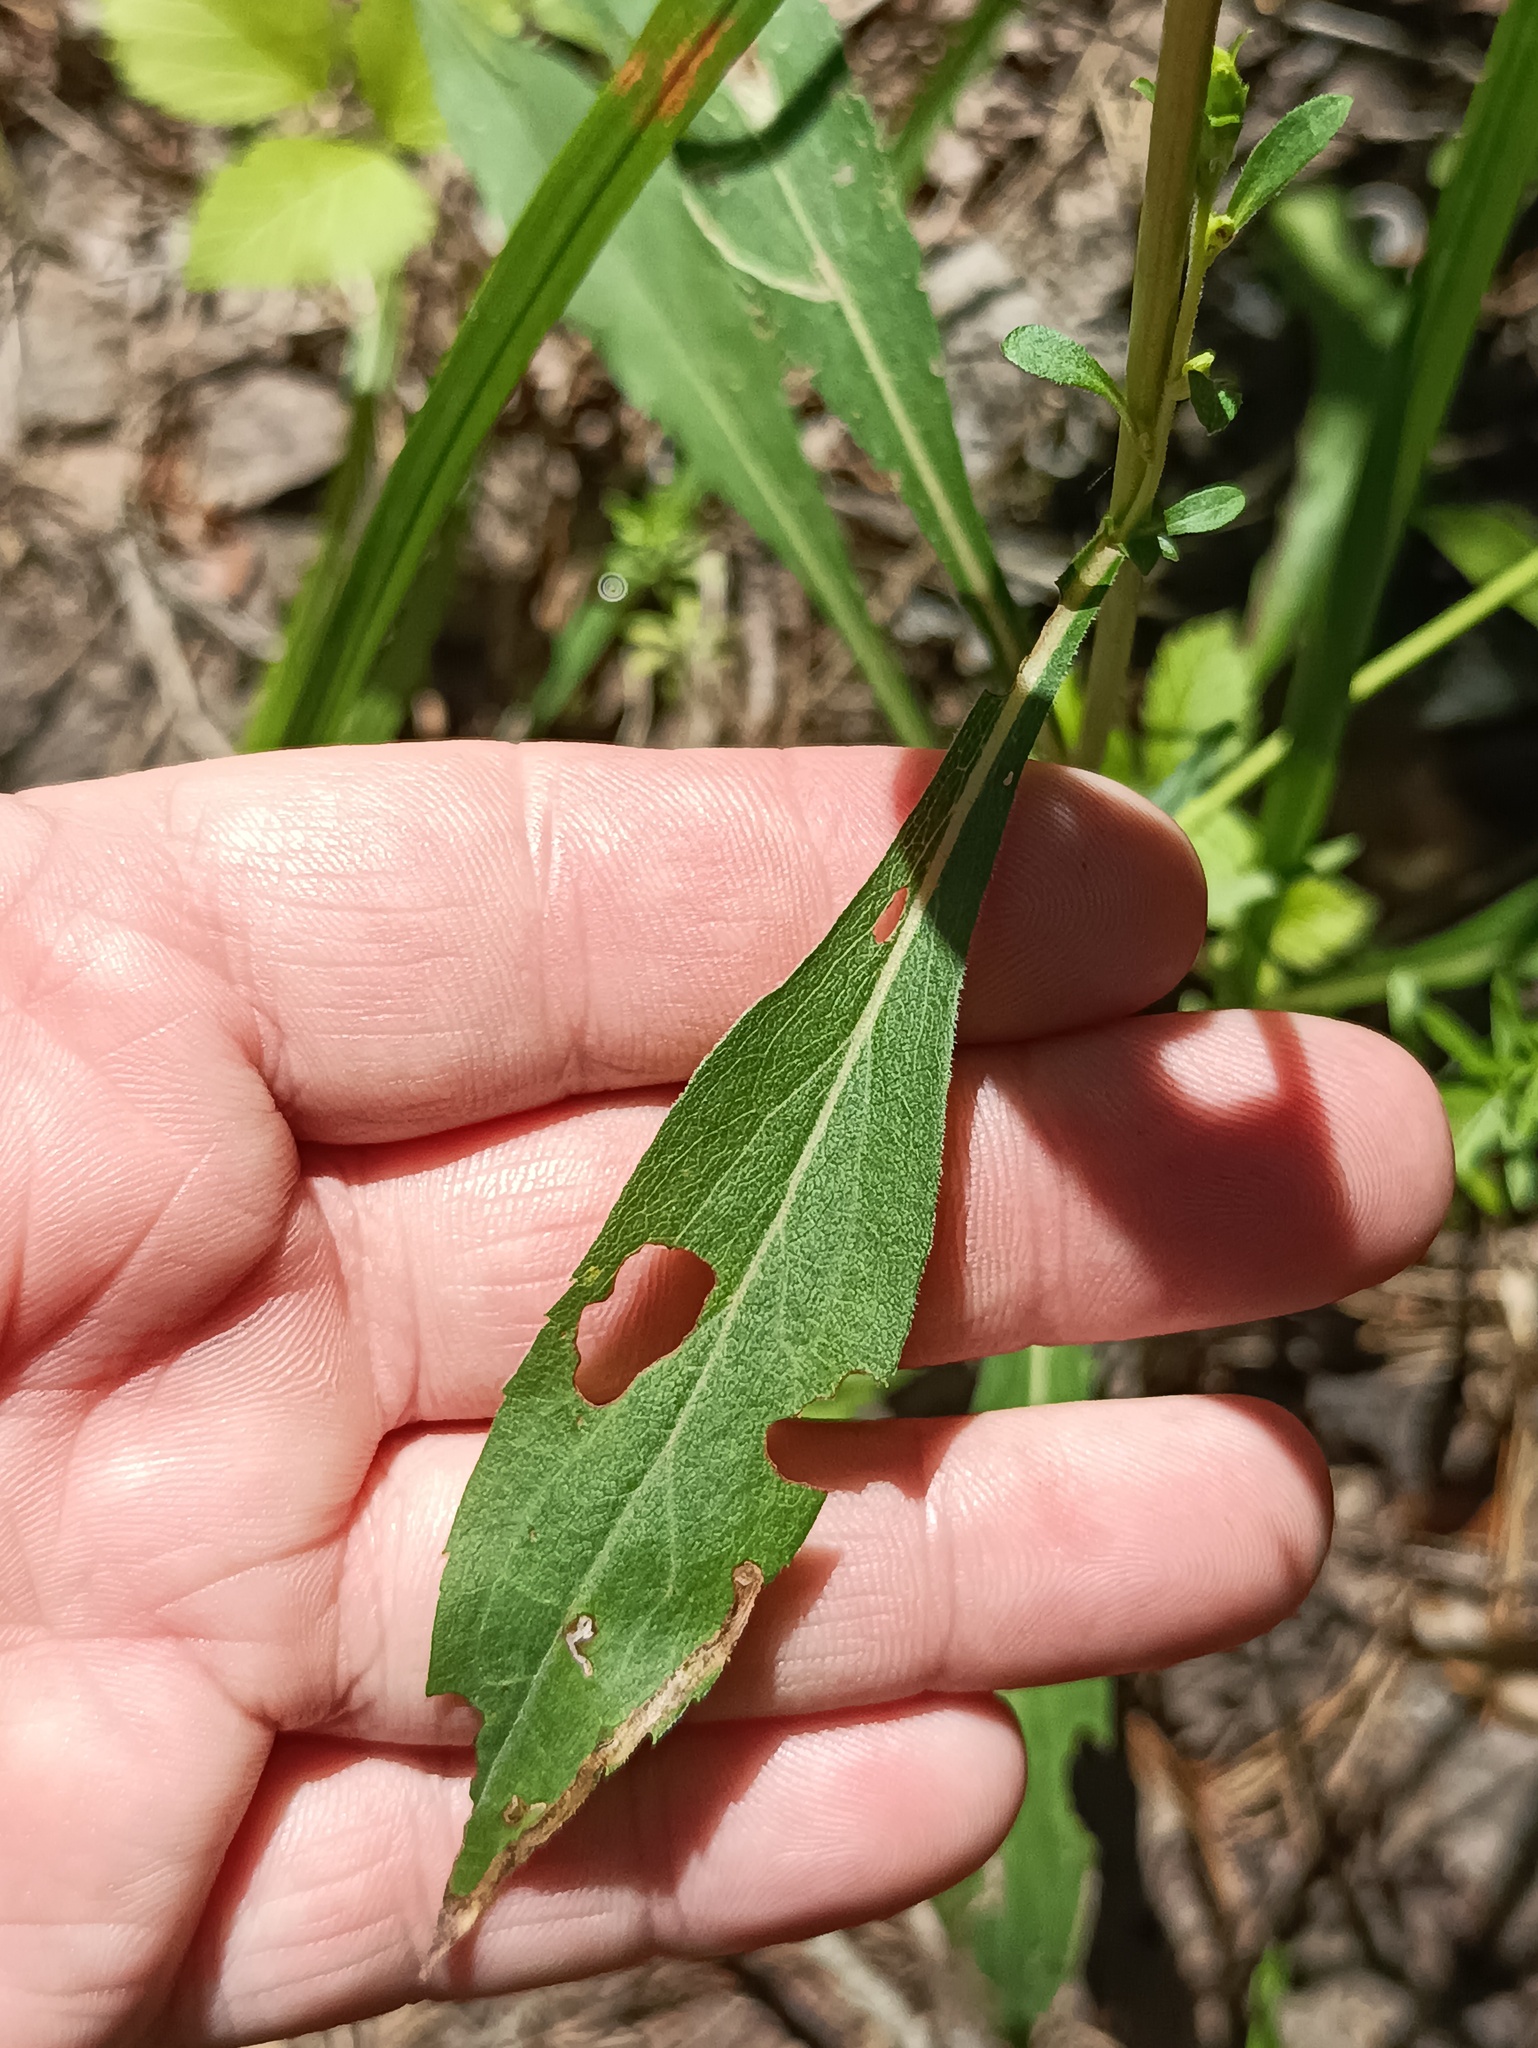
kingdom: Plantae
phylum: Tracheophyta
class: Magnoliopsida
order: Caryophyllales
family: Polygonaceae
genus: Persicaria
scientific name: Persicaria hydropiper
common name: Water-pepper
